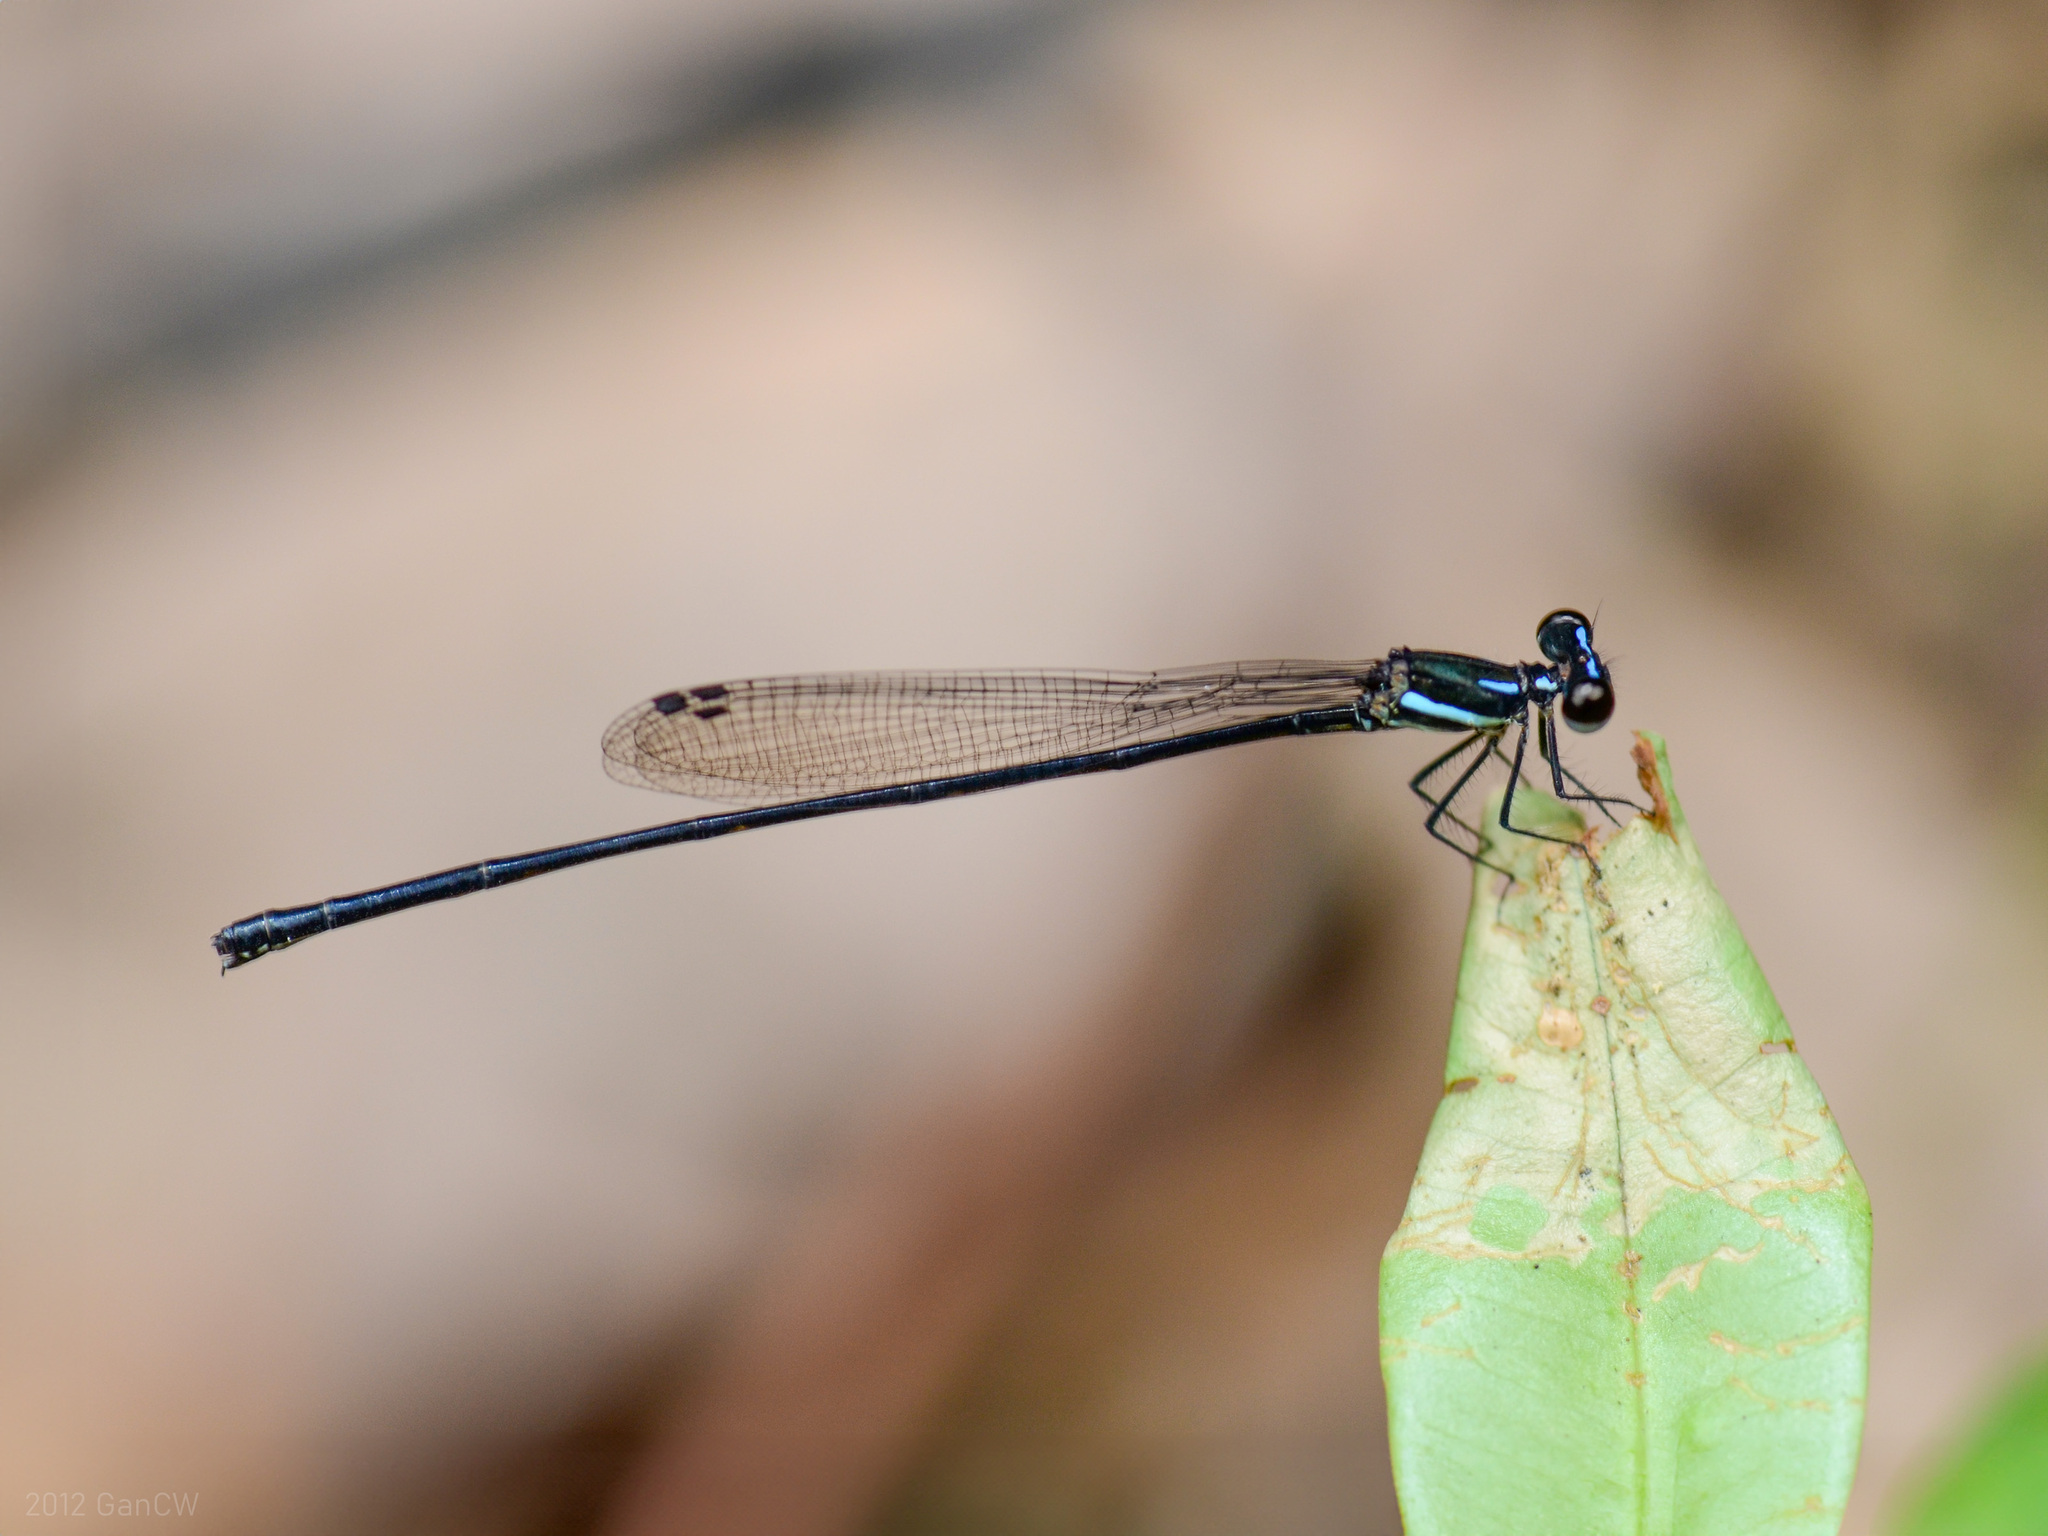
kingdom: Animalia
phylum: Arthropoda
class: Insecta
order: Odonata
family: Platycnemididae
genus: Prodasineura
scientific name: Prodasineura collaris
